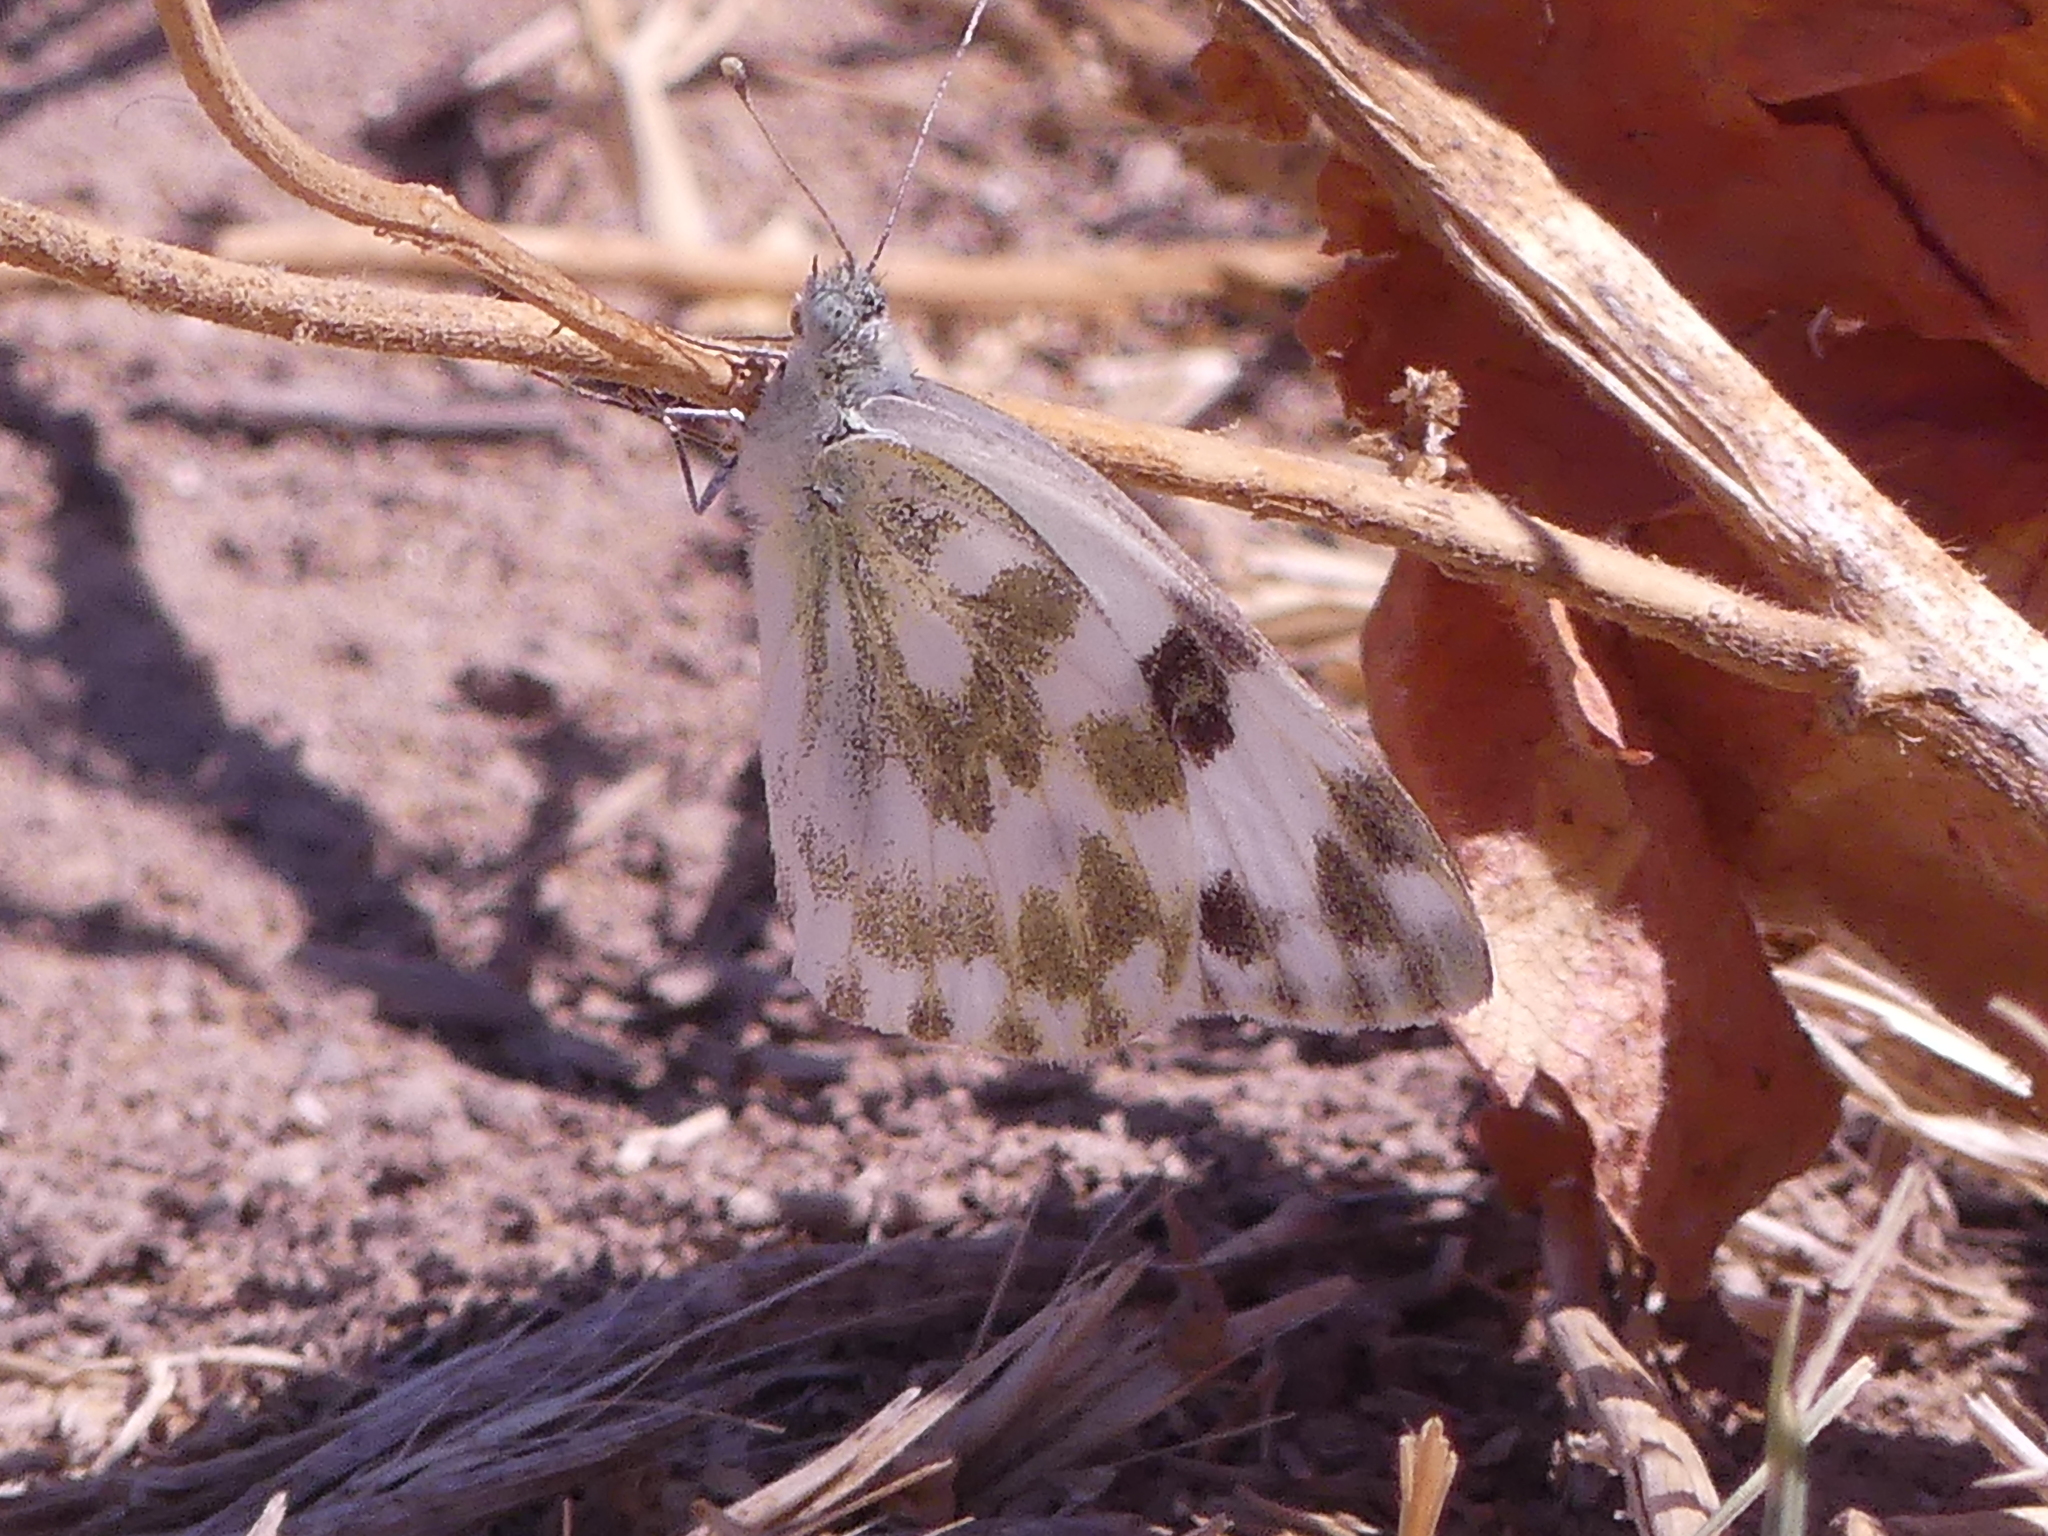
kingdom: Animalia
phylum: Arthropoda
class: Insecta
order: Lepidoptera
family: Pieridae
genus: Pontia
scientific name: Pontia daplidice
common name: Bath white
